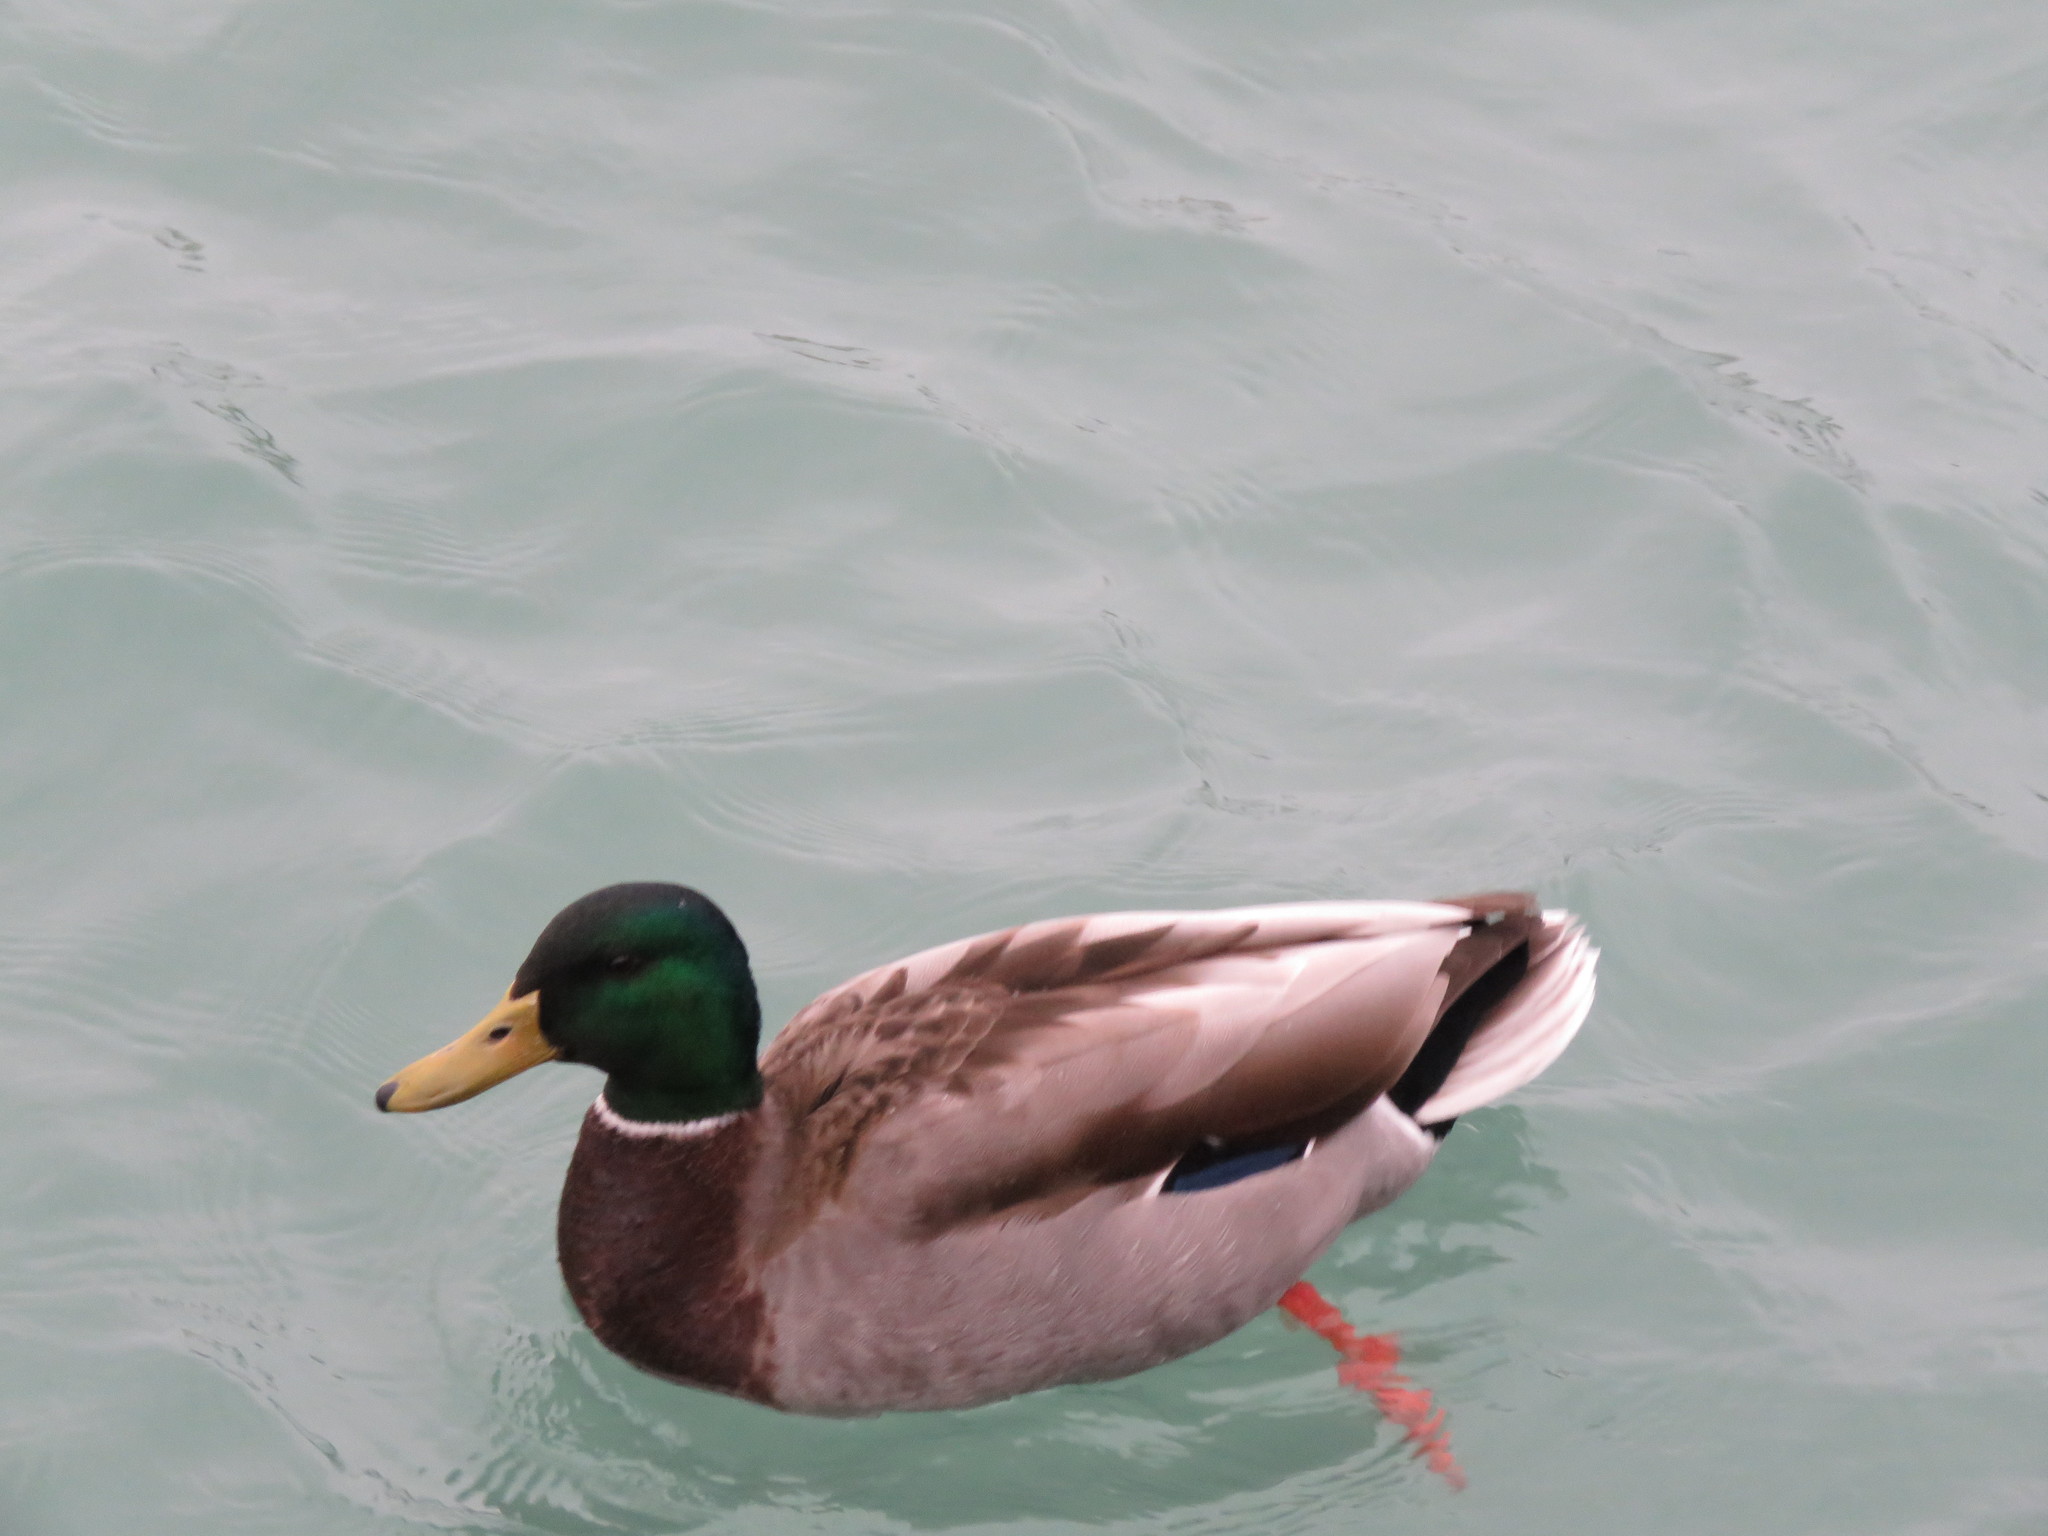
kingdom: Animalia
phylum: Chordata
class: Aves
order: Anseriformes
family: Anatidae
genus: Anas
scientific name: Anas platyrhynchos
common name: Mallard
